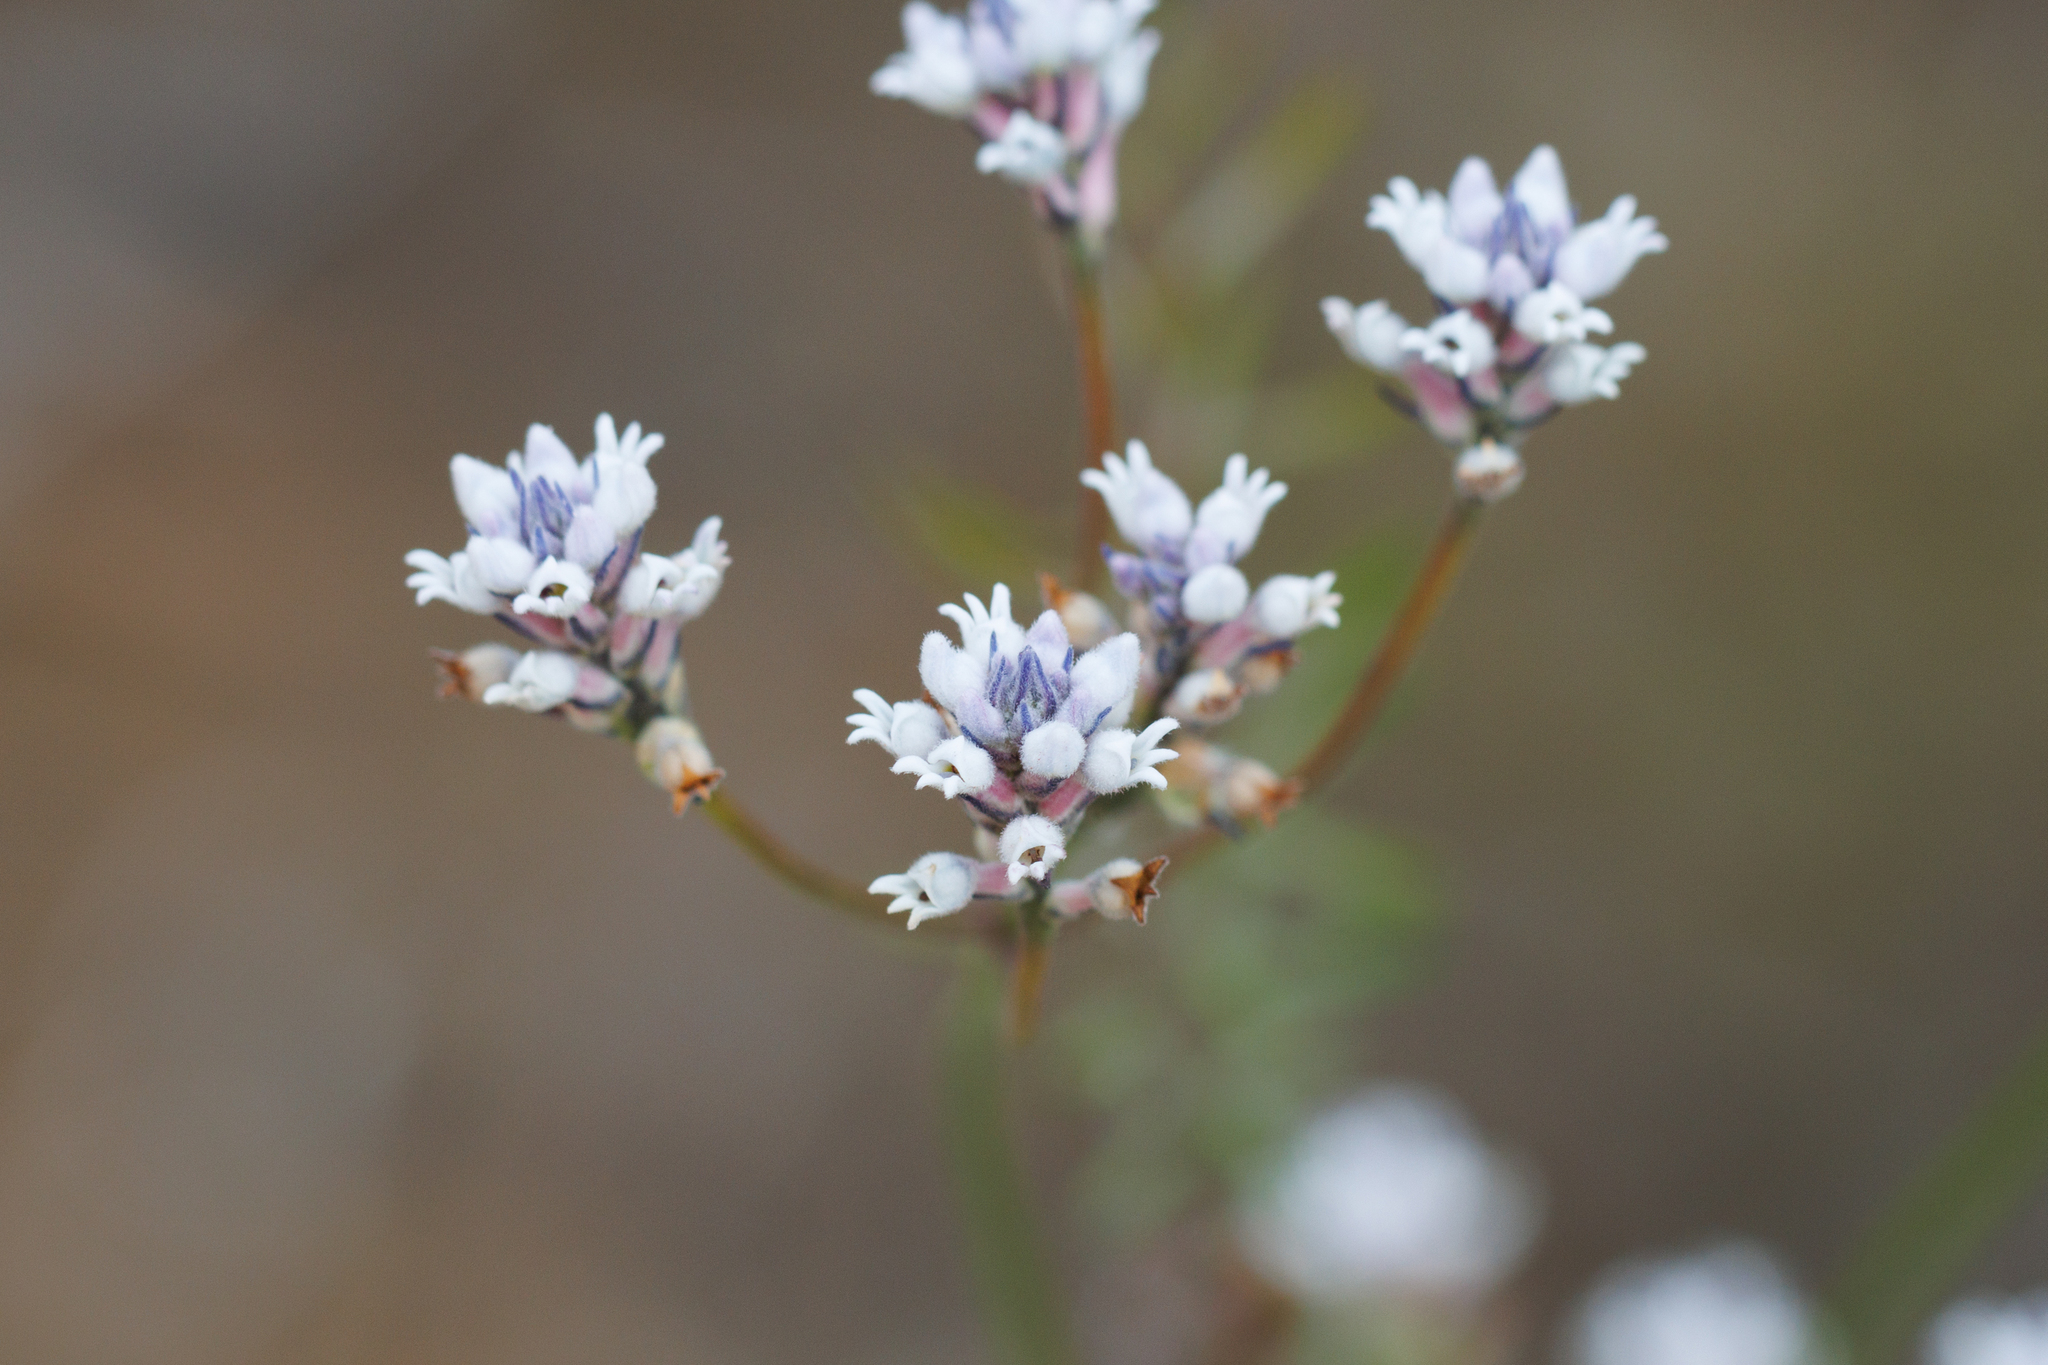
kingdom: Plantae
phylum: Tracheophyta
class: Magnoliopsida
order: Proteales
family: Proteaceae
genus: Conospermum
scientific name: Conospermum patens
